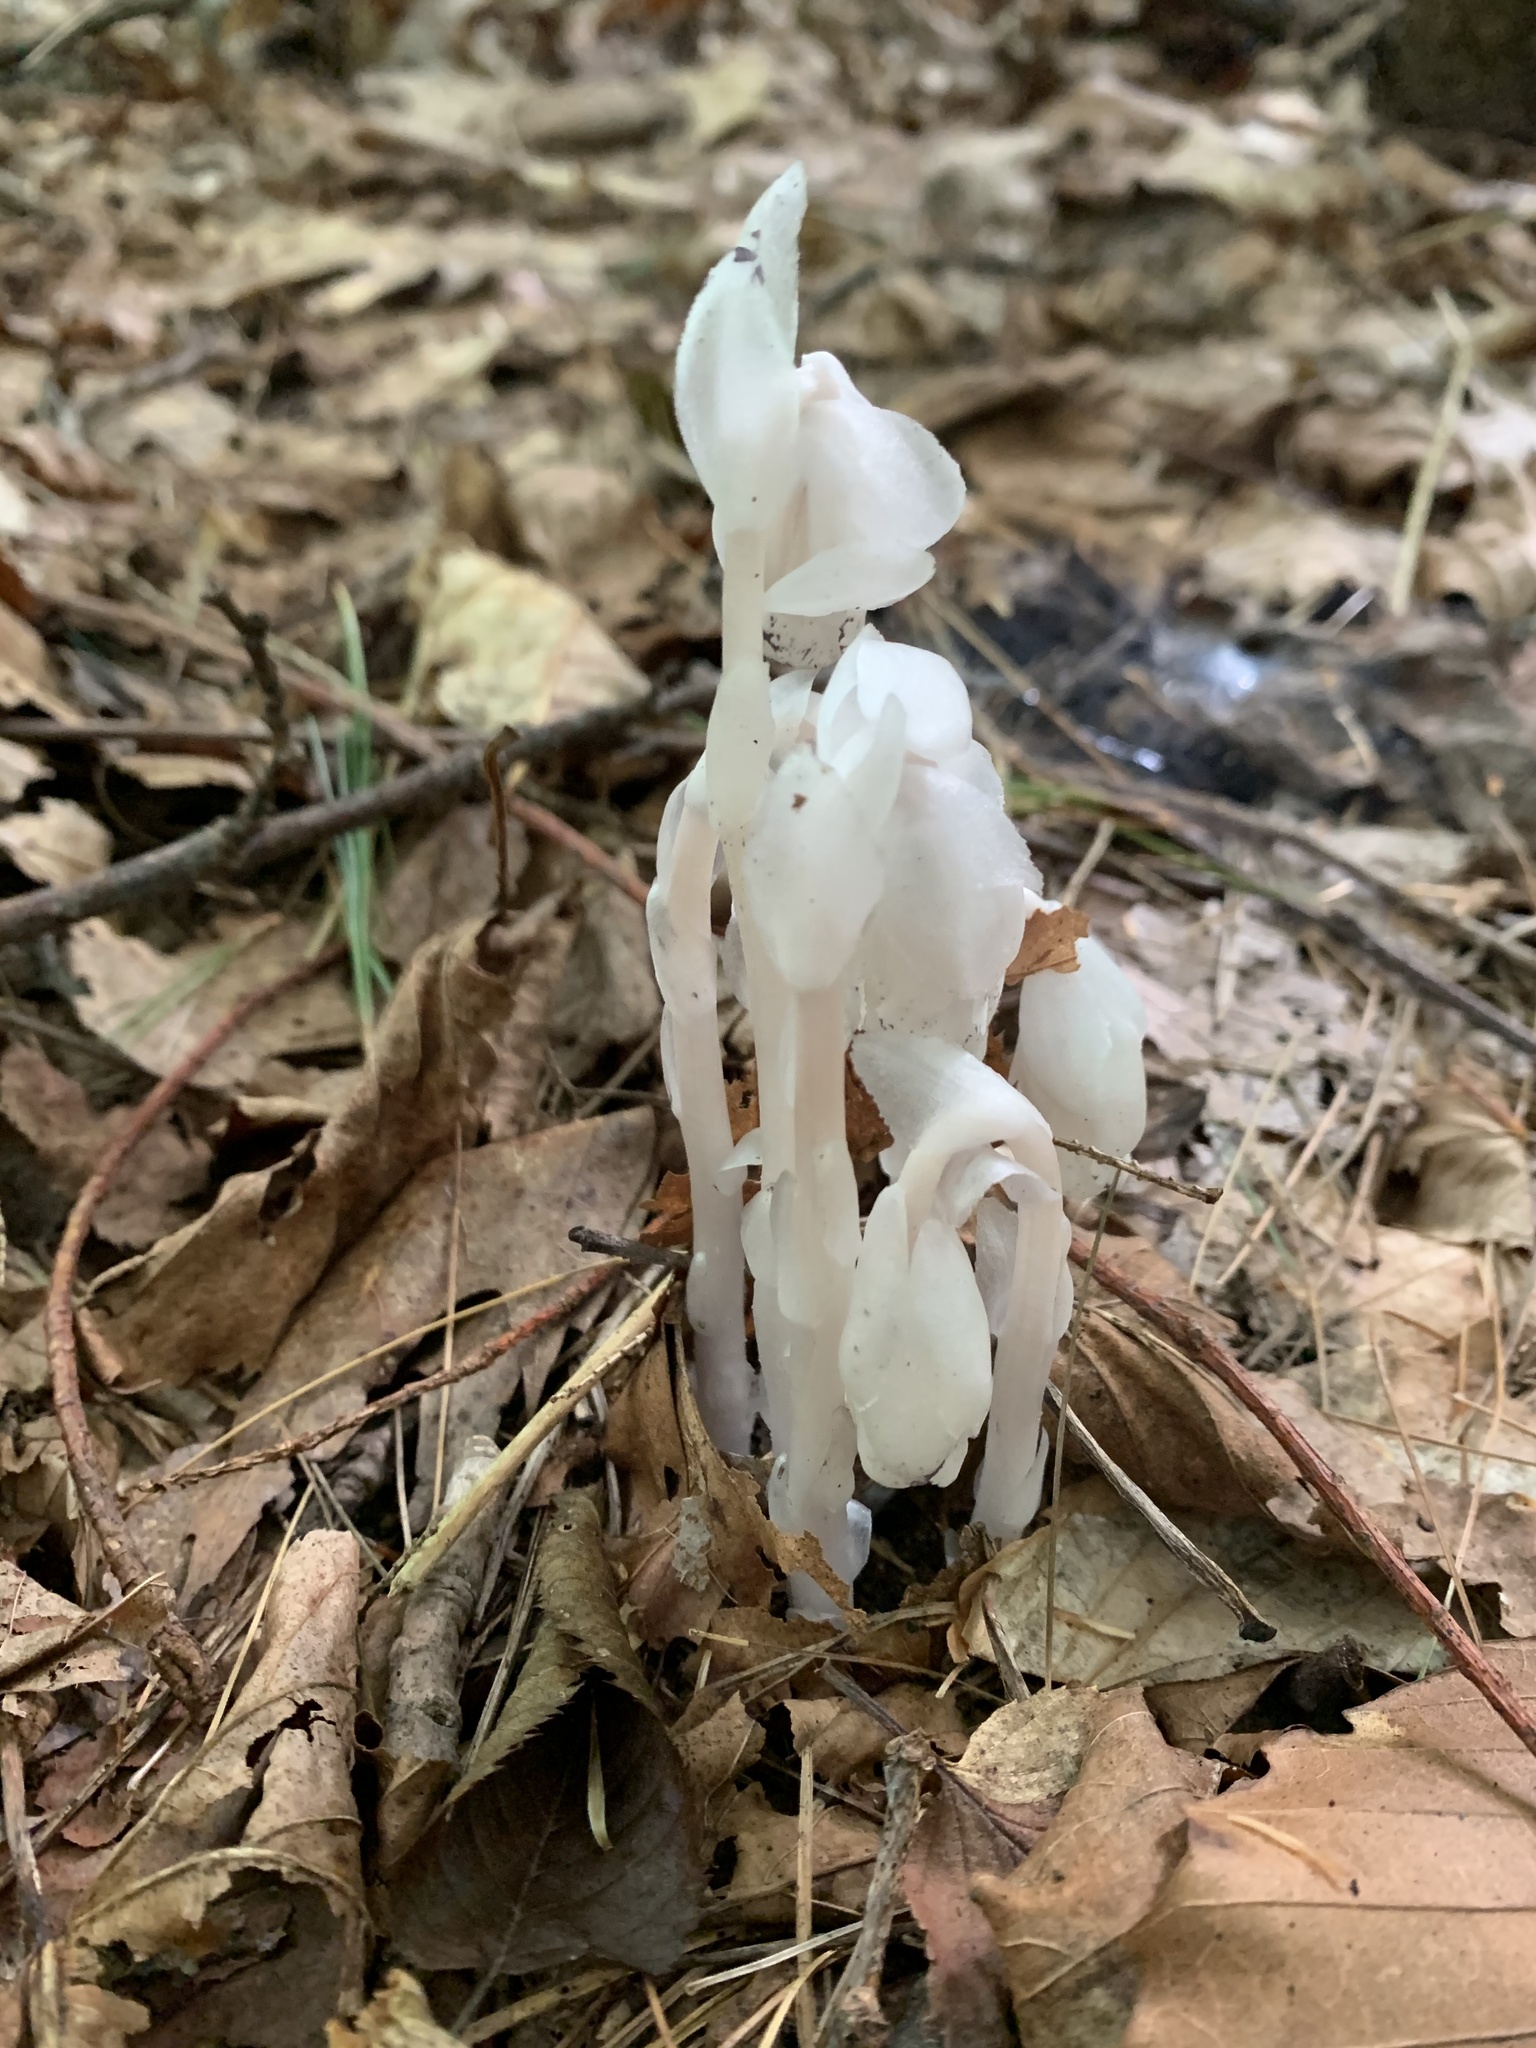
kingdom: Plantae
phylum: Tracheophyta
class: Magnoliopsida
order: Ericales
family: Ericaceae
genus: Monotropa
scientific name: Monotropa uniflora
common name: Convulsion root
